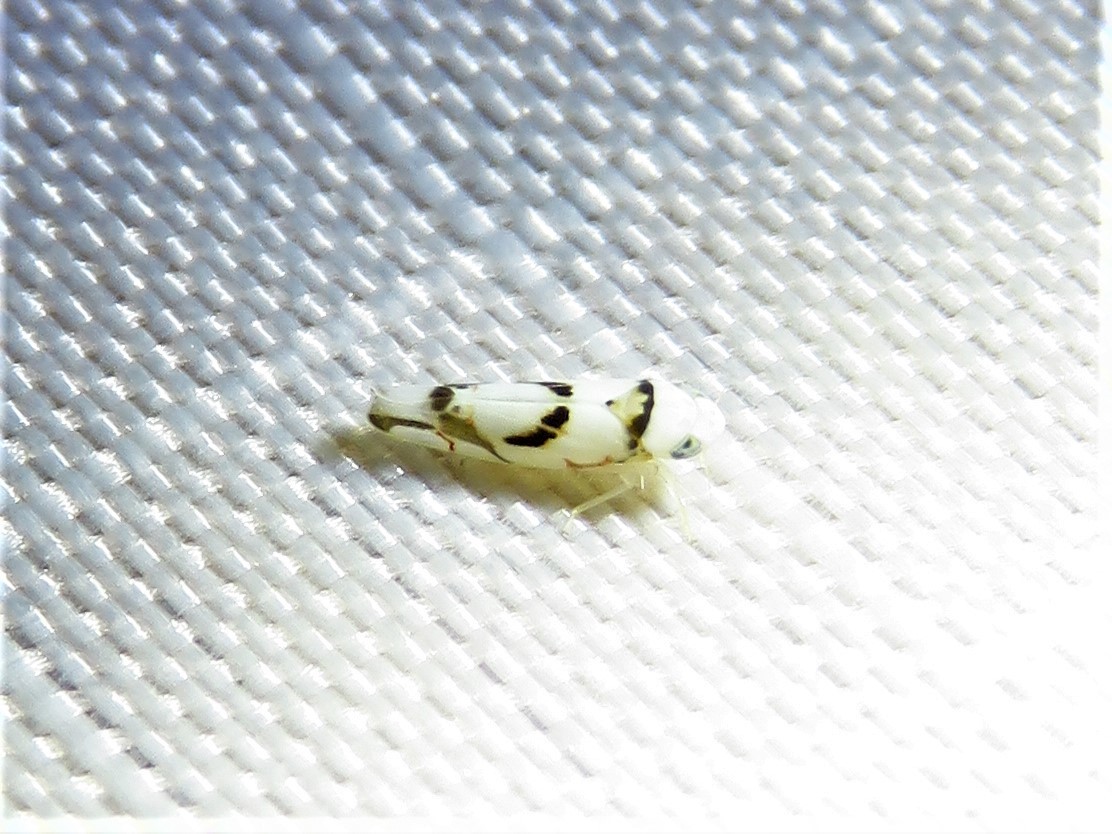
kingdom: Animalia
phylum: Arthropoda
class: Insecta
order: Hemiptera
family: Cicadellidae
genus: Eratoneura
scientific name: Eratoneura lunata
